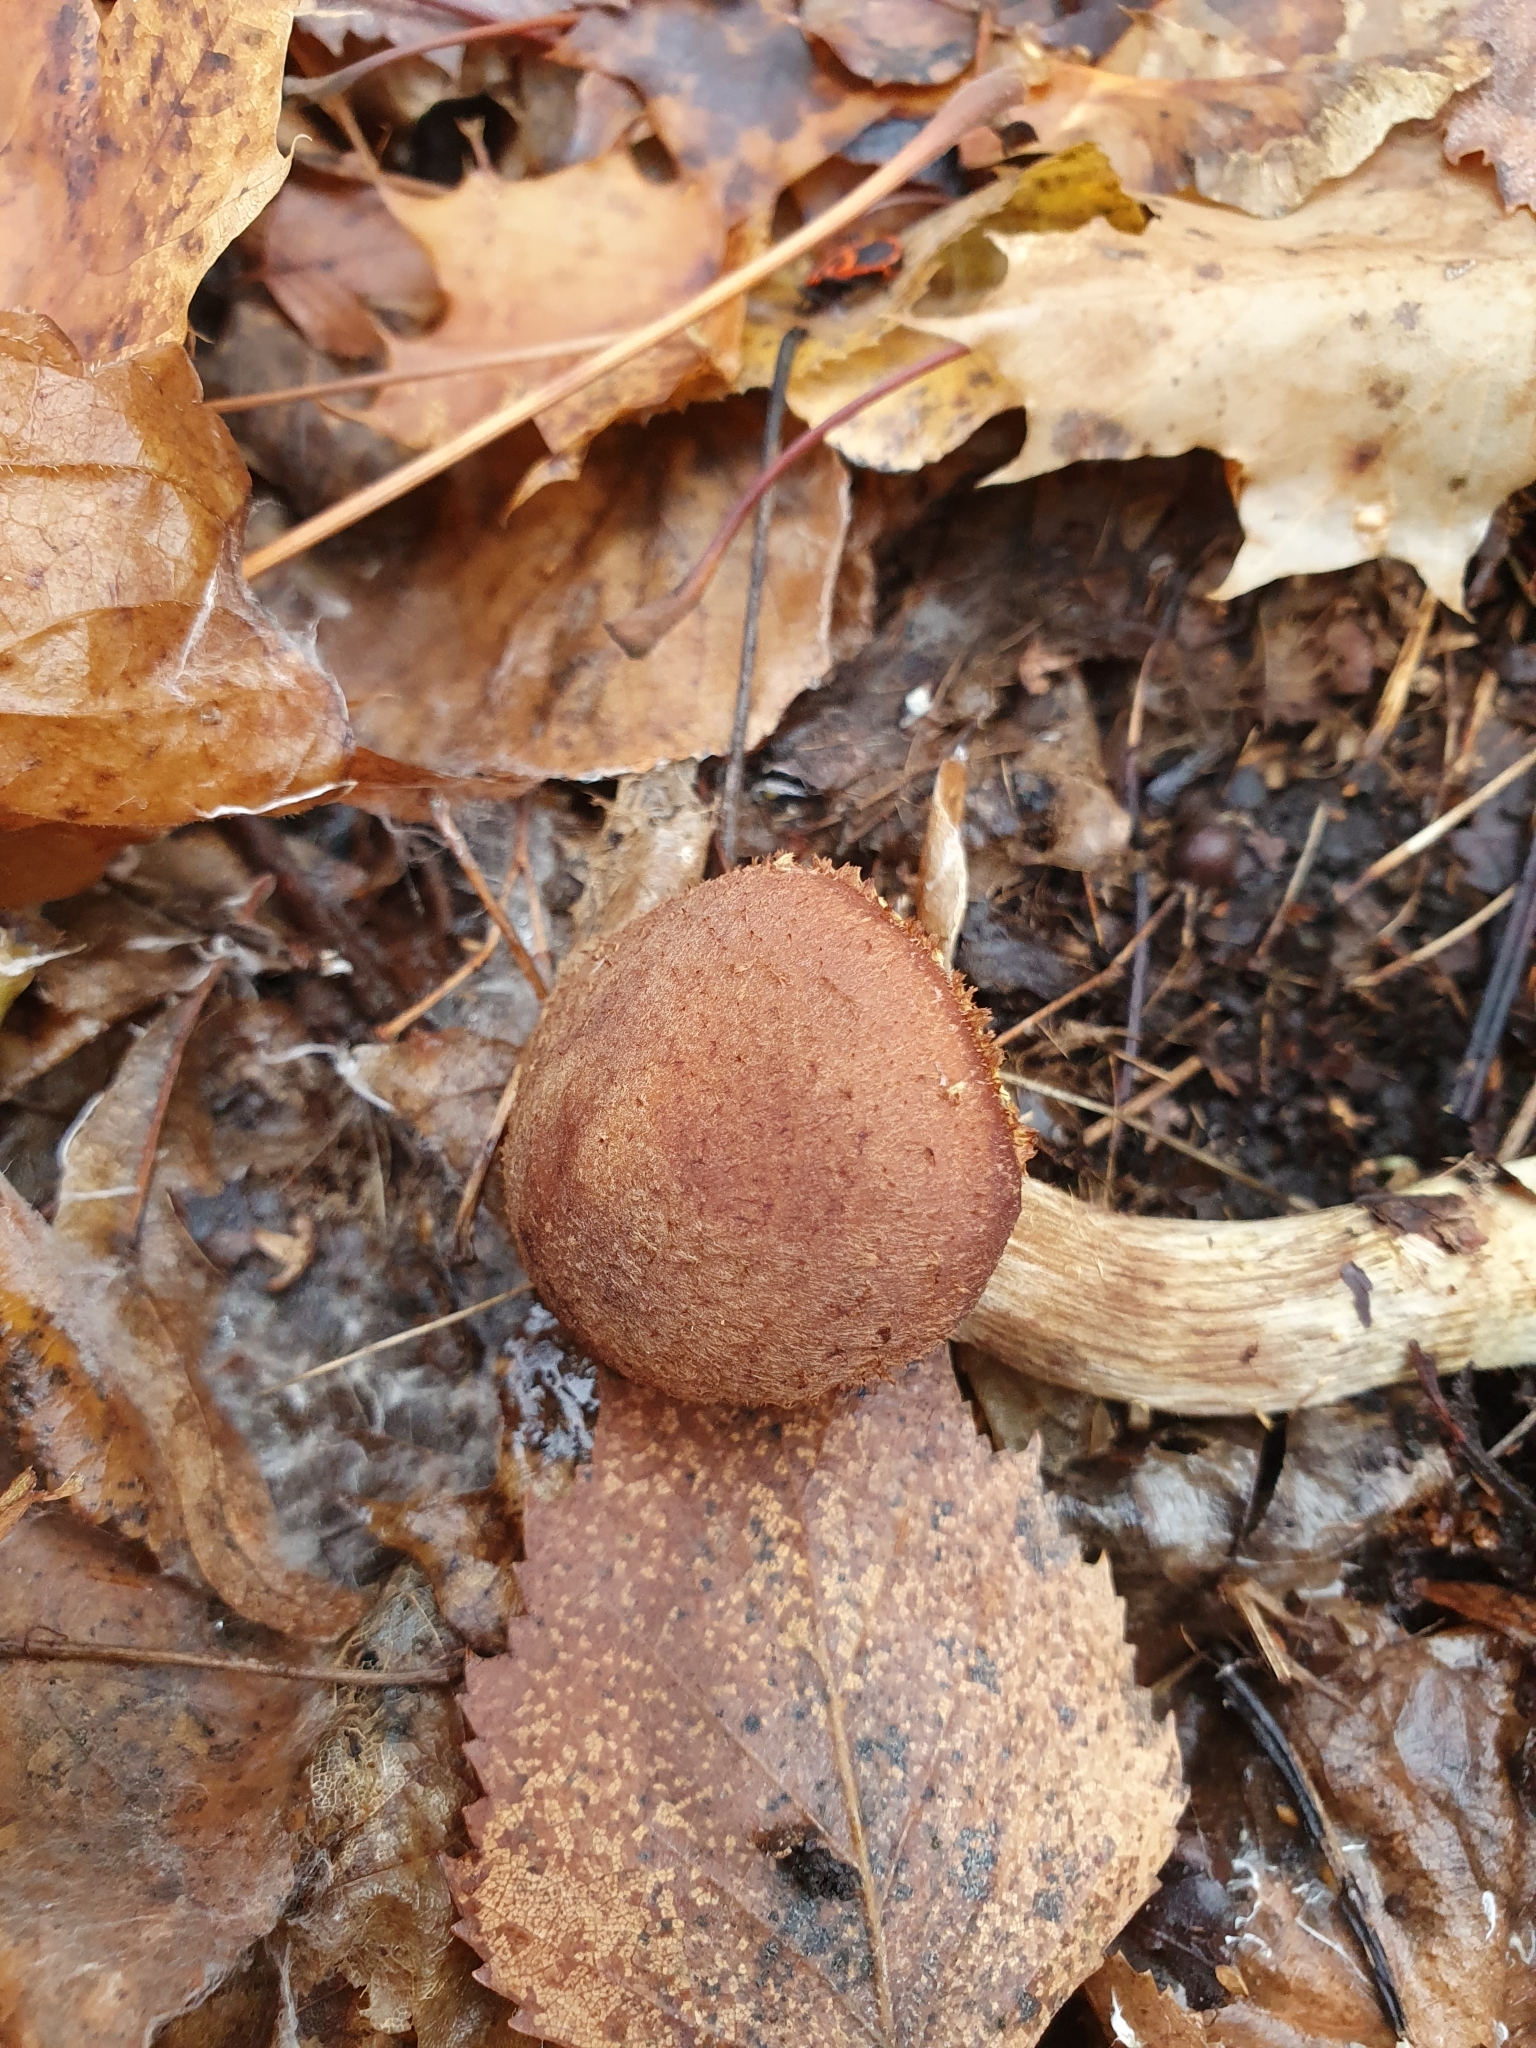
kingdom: Fungi
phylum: Basidiomycota
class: Agaricomycetes
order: Agaricales
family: Physalacriaceae
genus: Armillaria
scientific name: Armillaria ostoyae
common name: Dark honey fungus
